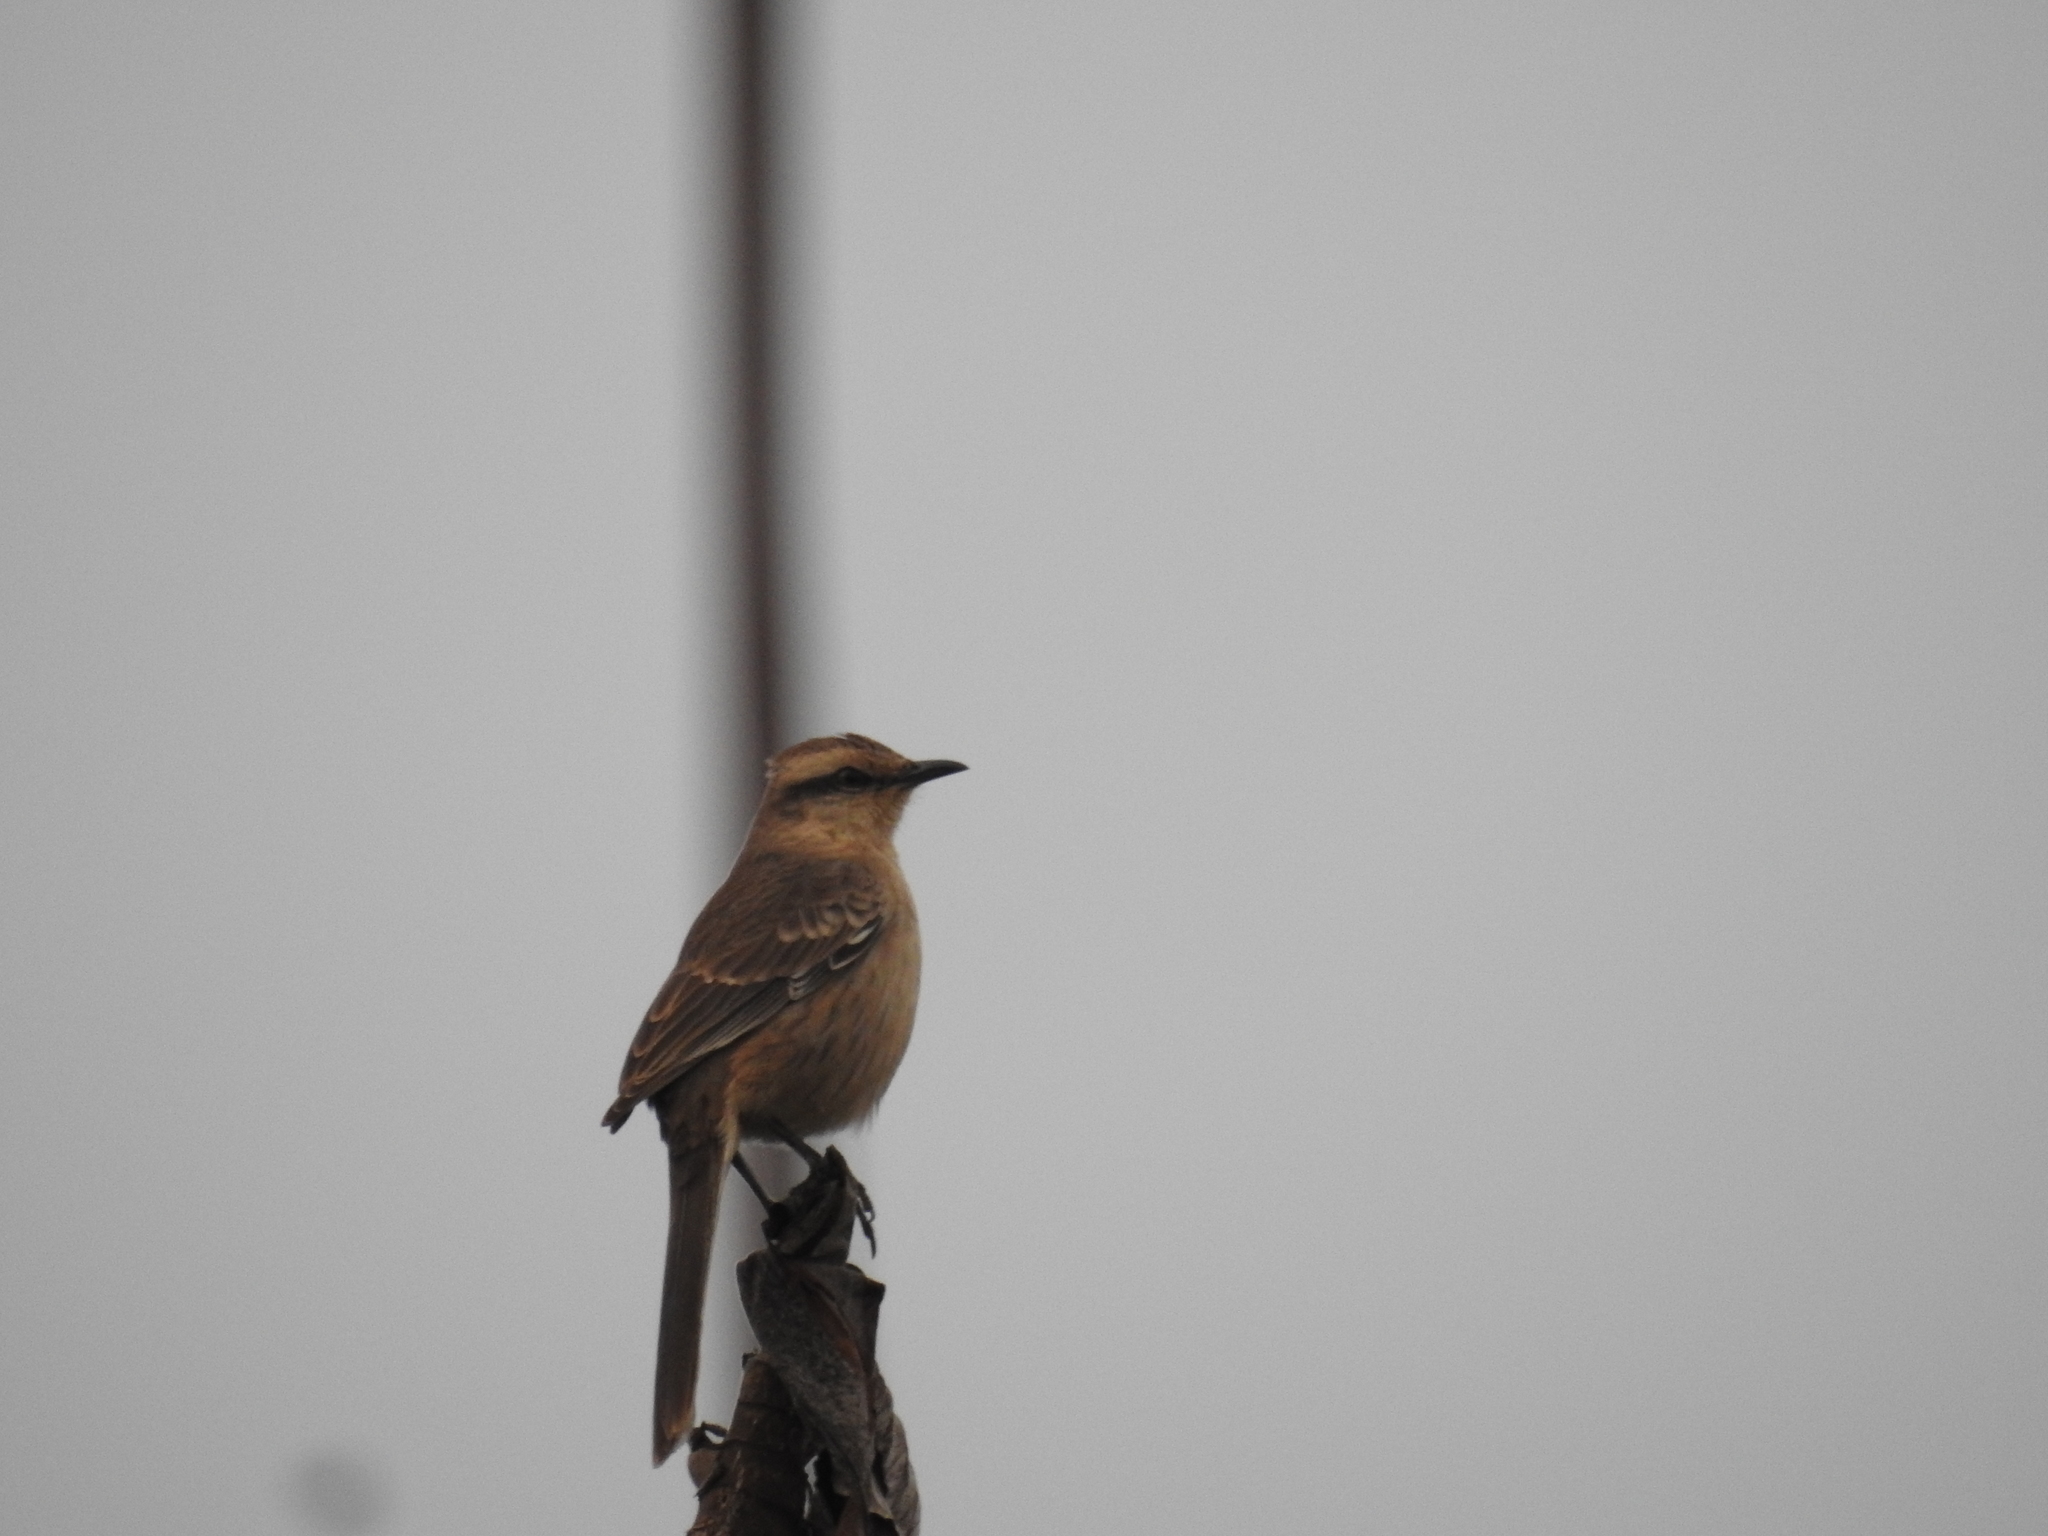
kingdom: Animalia
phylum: Chordata
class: Aves
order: Passeriformes
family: Mimidae
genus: Mimus
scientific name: Mimus saturninus
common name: Chalk-browed mockingbird
